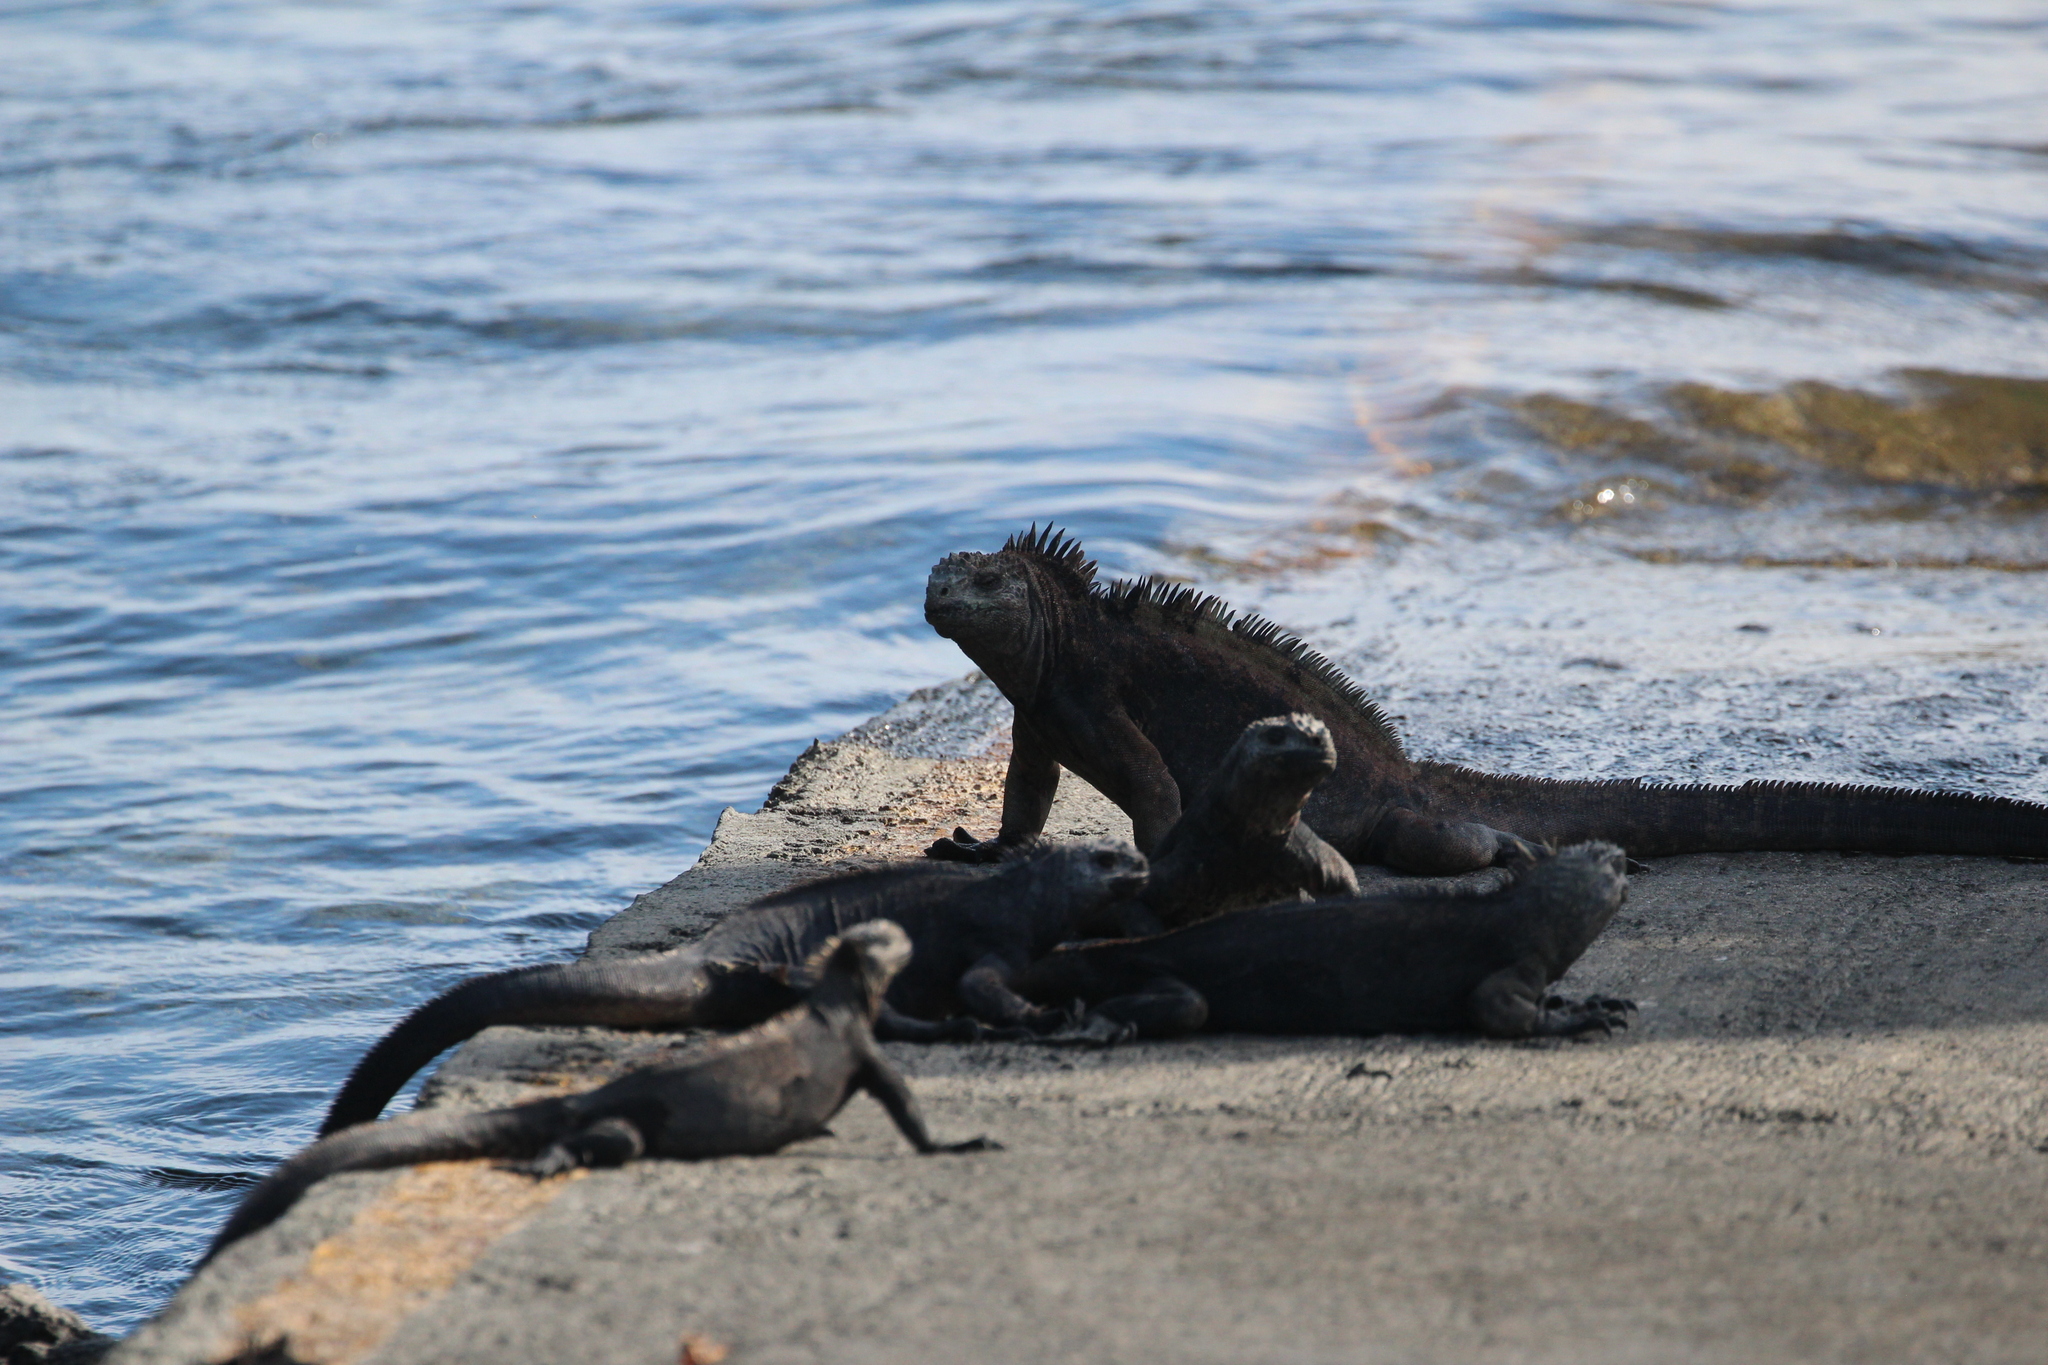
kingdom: Animalia
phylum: Chordata
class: Squamata
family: Iguanidae
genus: Amblyrhynchus
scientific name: Amblyrhynchus cristatus
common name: Marine iguana
